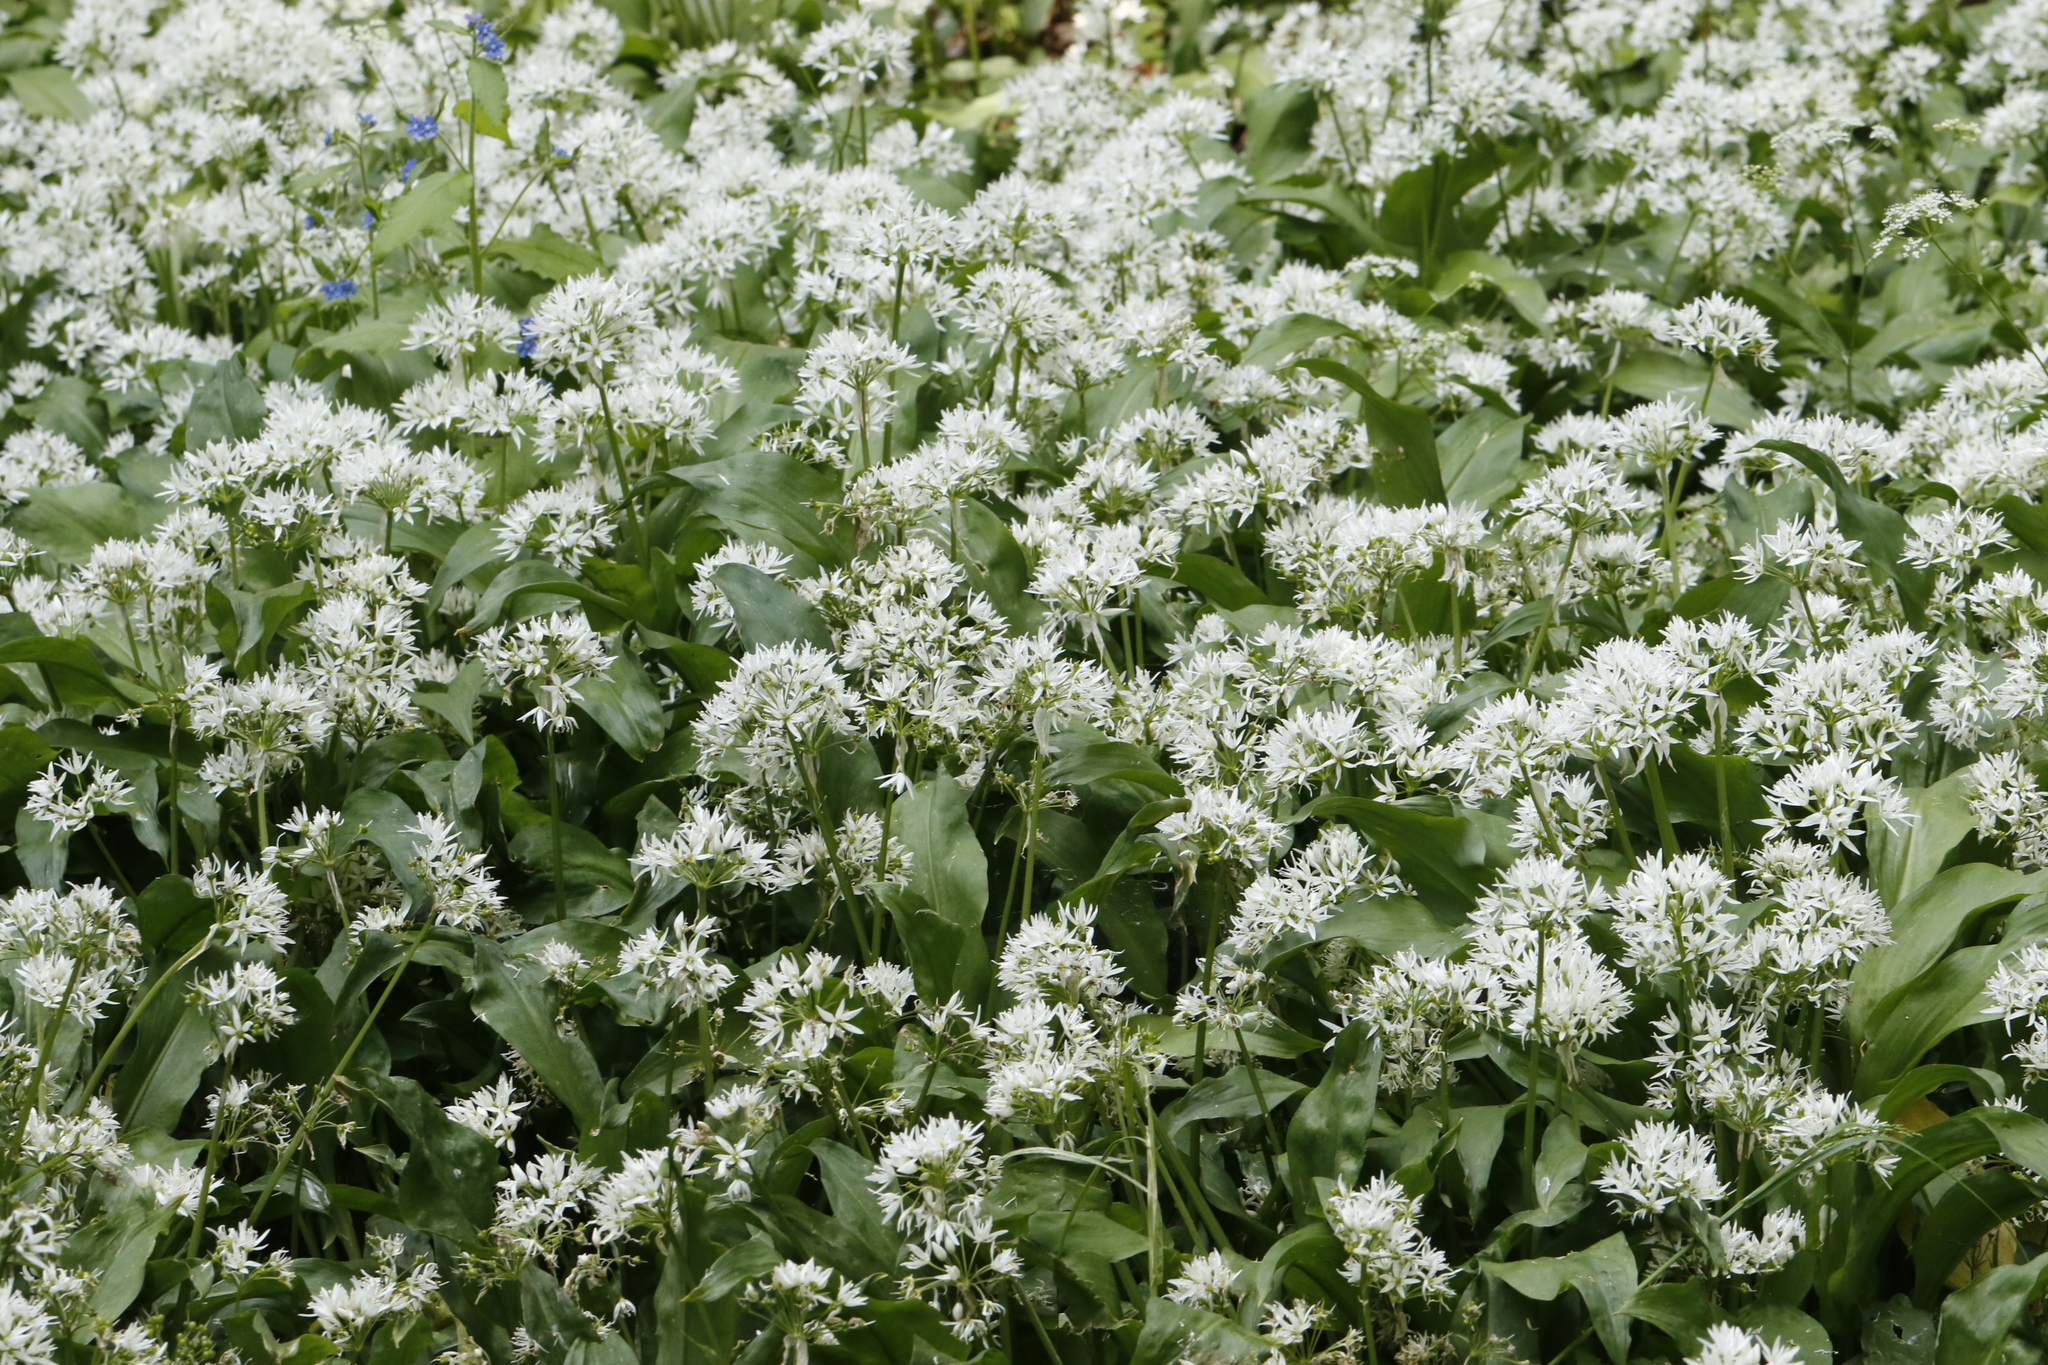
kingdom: Plantae
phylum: Tracheophyta
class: Liliopsida
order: Asparagales
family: Amaryllidaceae
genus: Allium
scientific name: Allium ursinum
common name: Ramsons
